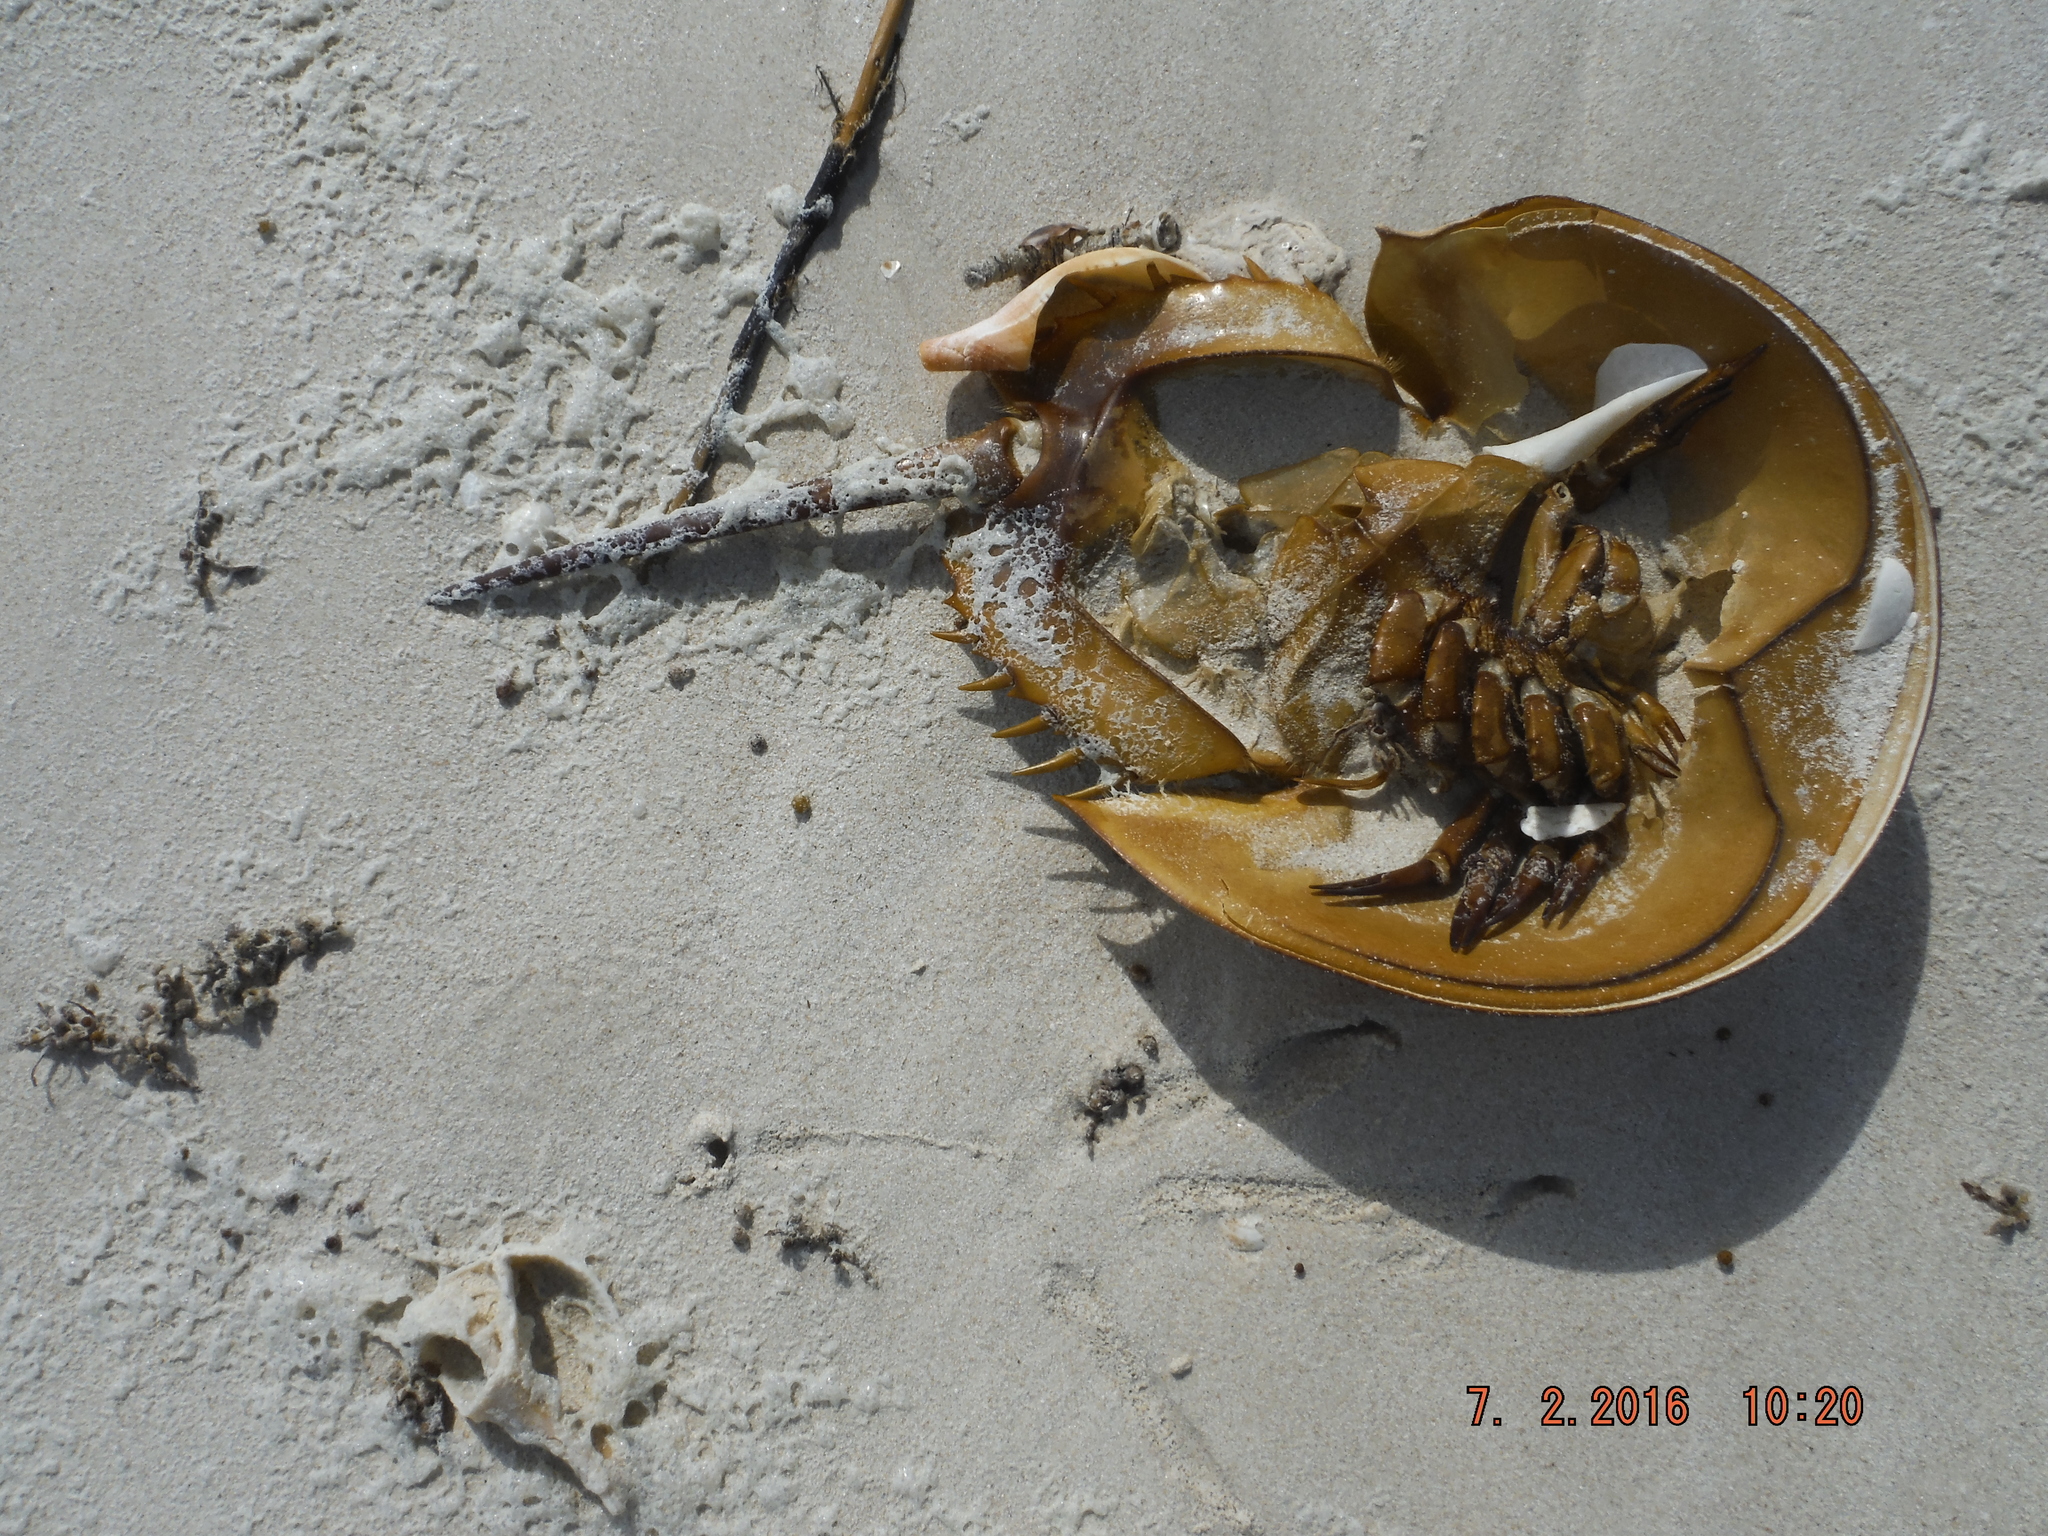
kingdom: Animalia
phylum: Arthropoda
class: Merostomata
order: Xiphosurida
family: Limulidae
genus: Limulus
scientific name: Limulus polyphemus
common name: Horseshoe crab
